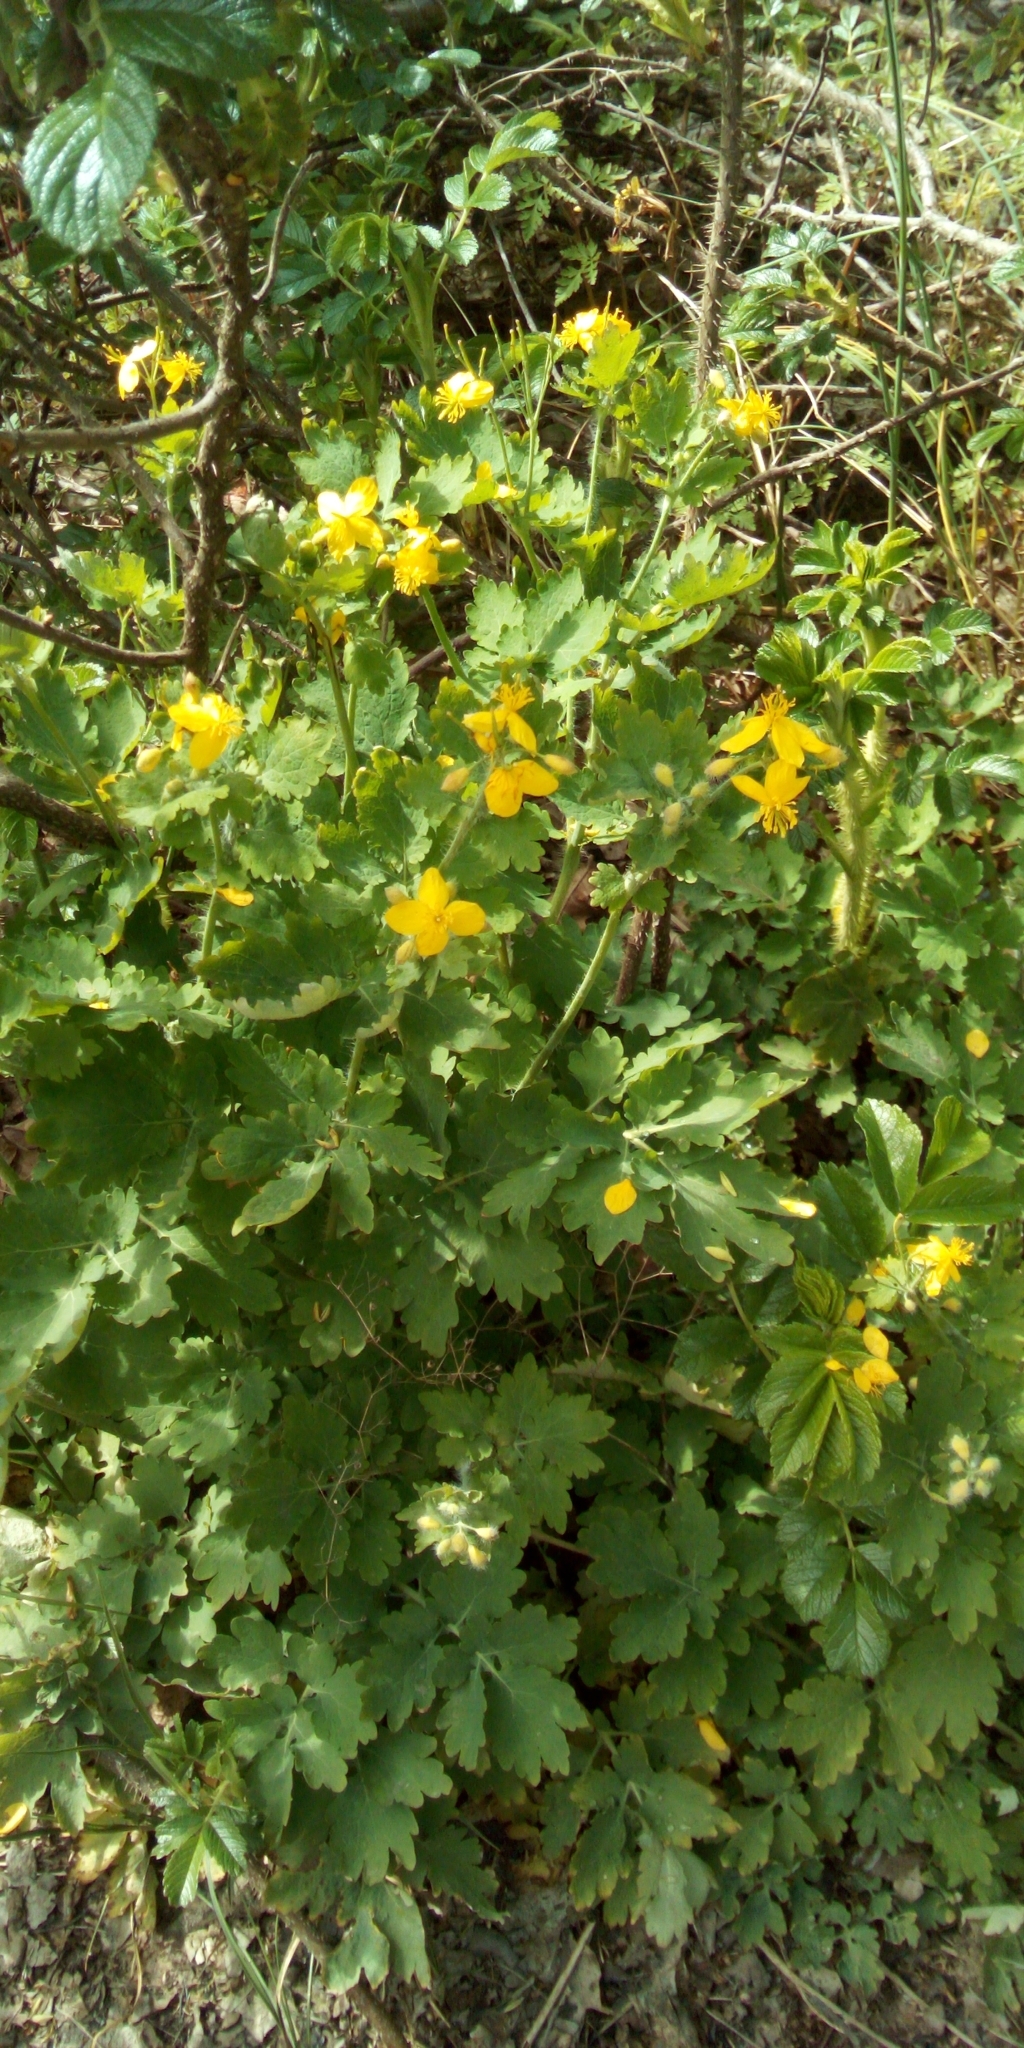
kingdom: Plantae
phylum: Tracheophyta
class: Magnoliopsida
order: Ranunculales
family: Papaveraceae
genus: Chelidonium
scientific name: Chelidonium majus
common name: Greater celandine
